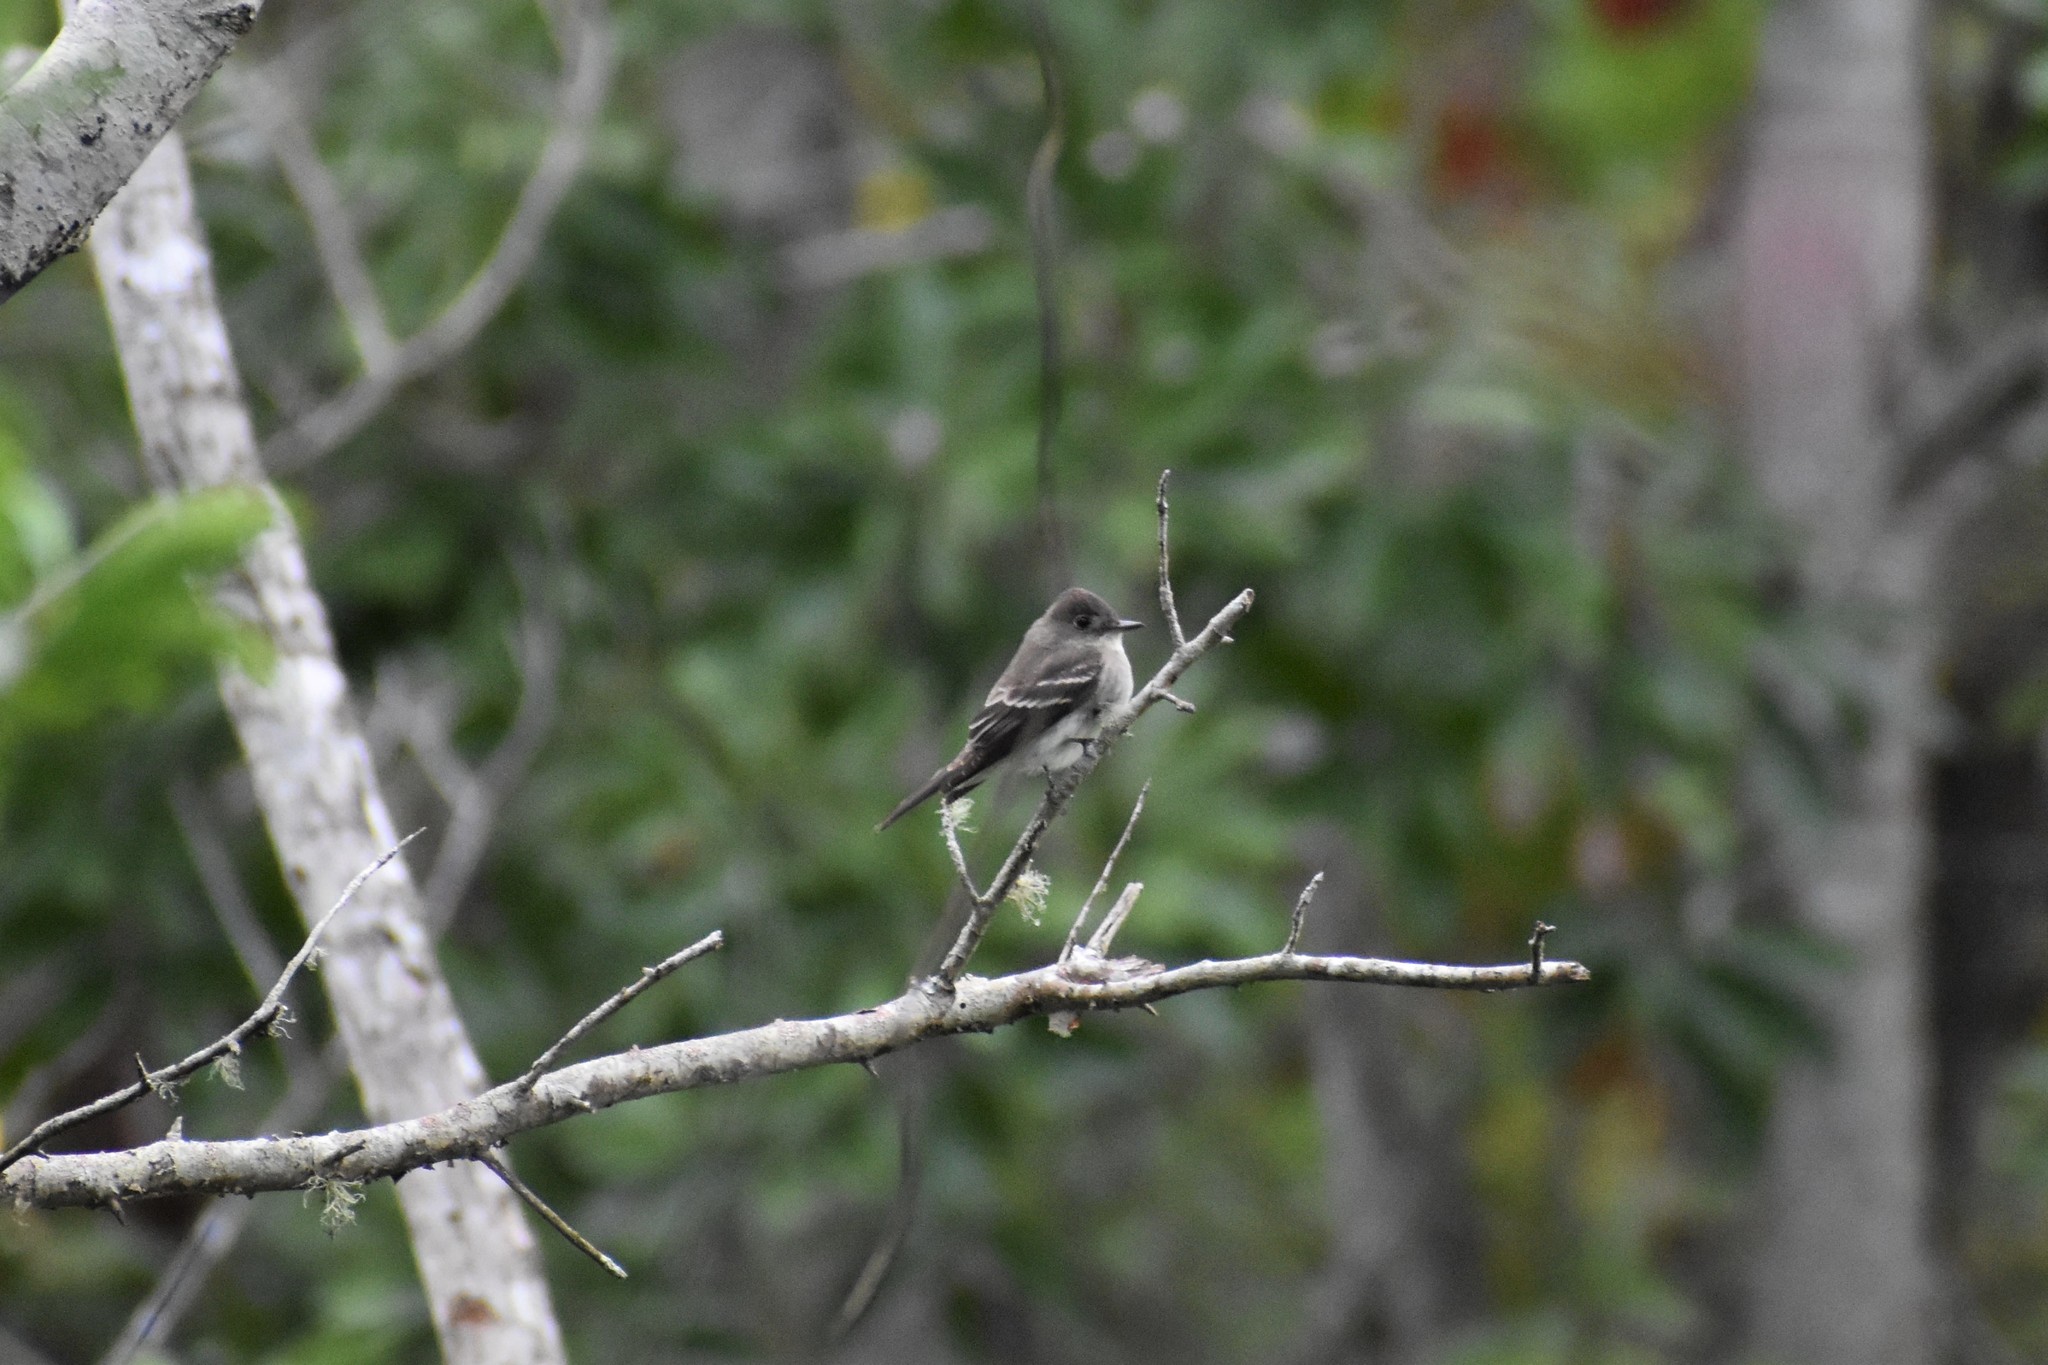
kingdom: Animalia
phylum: Chordata
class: Aves
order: Passeriformes
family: Tyrannidae
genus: Contopus
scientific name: Contopus virens
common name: Eastern wood-pewee
